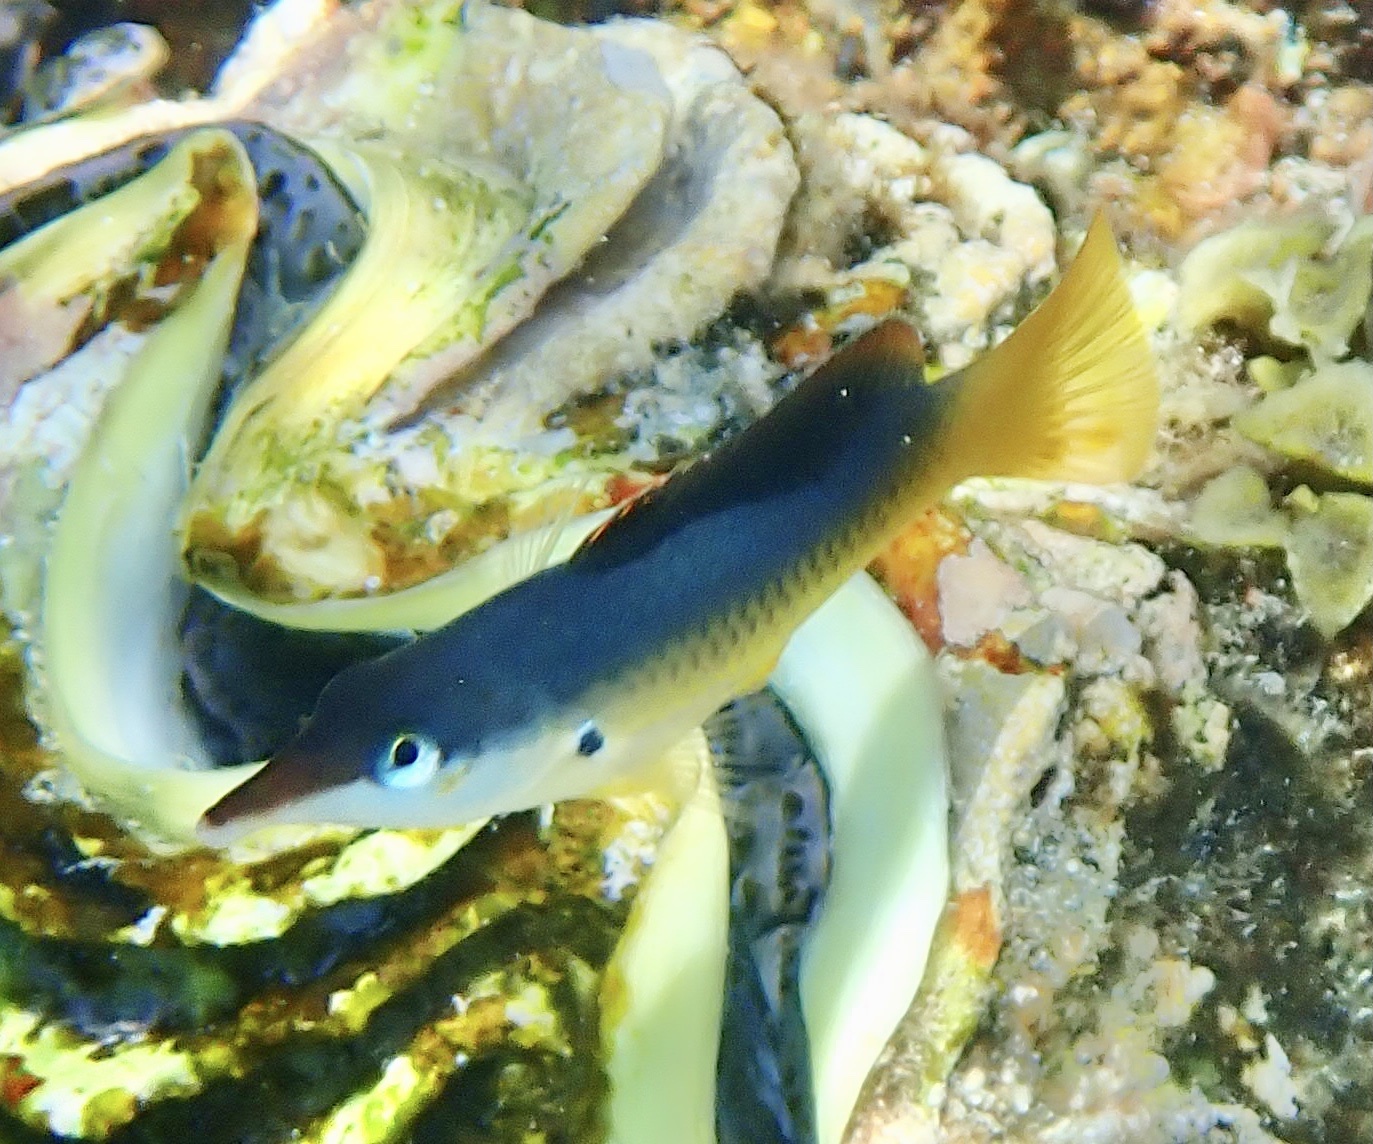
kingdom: Animalia
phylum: Chordata
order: Perciformes
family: Labridae
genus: Gomphosus
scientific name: Gomphosus klunzingeri
